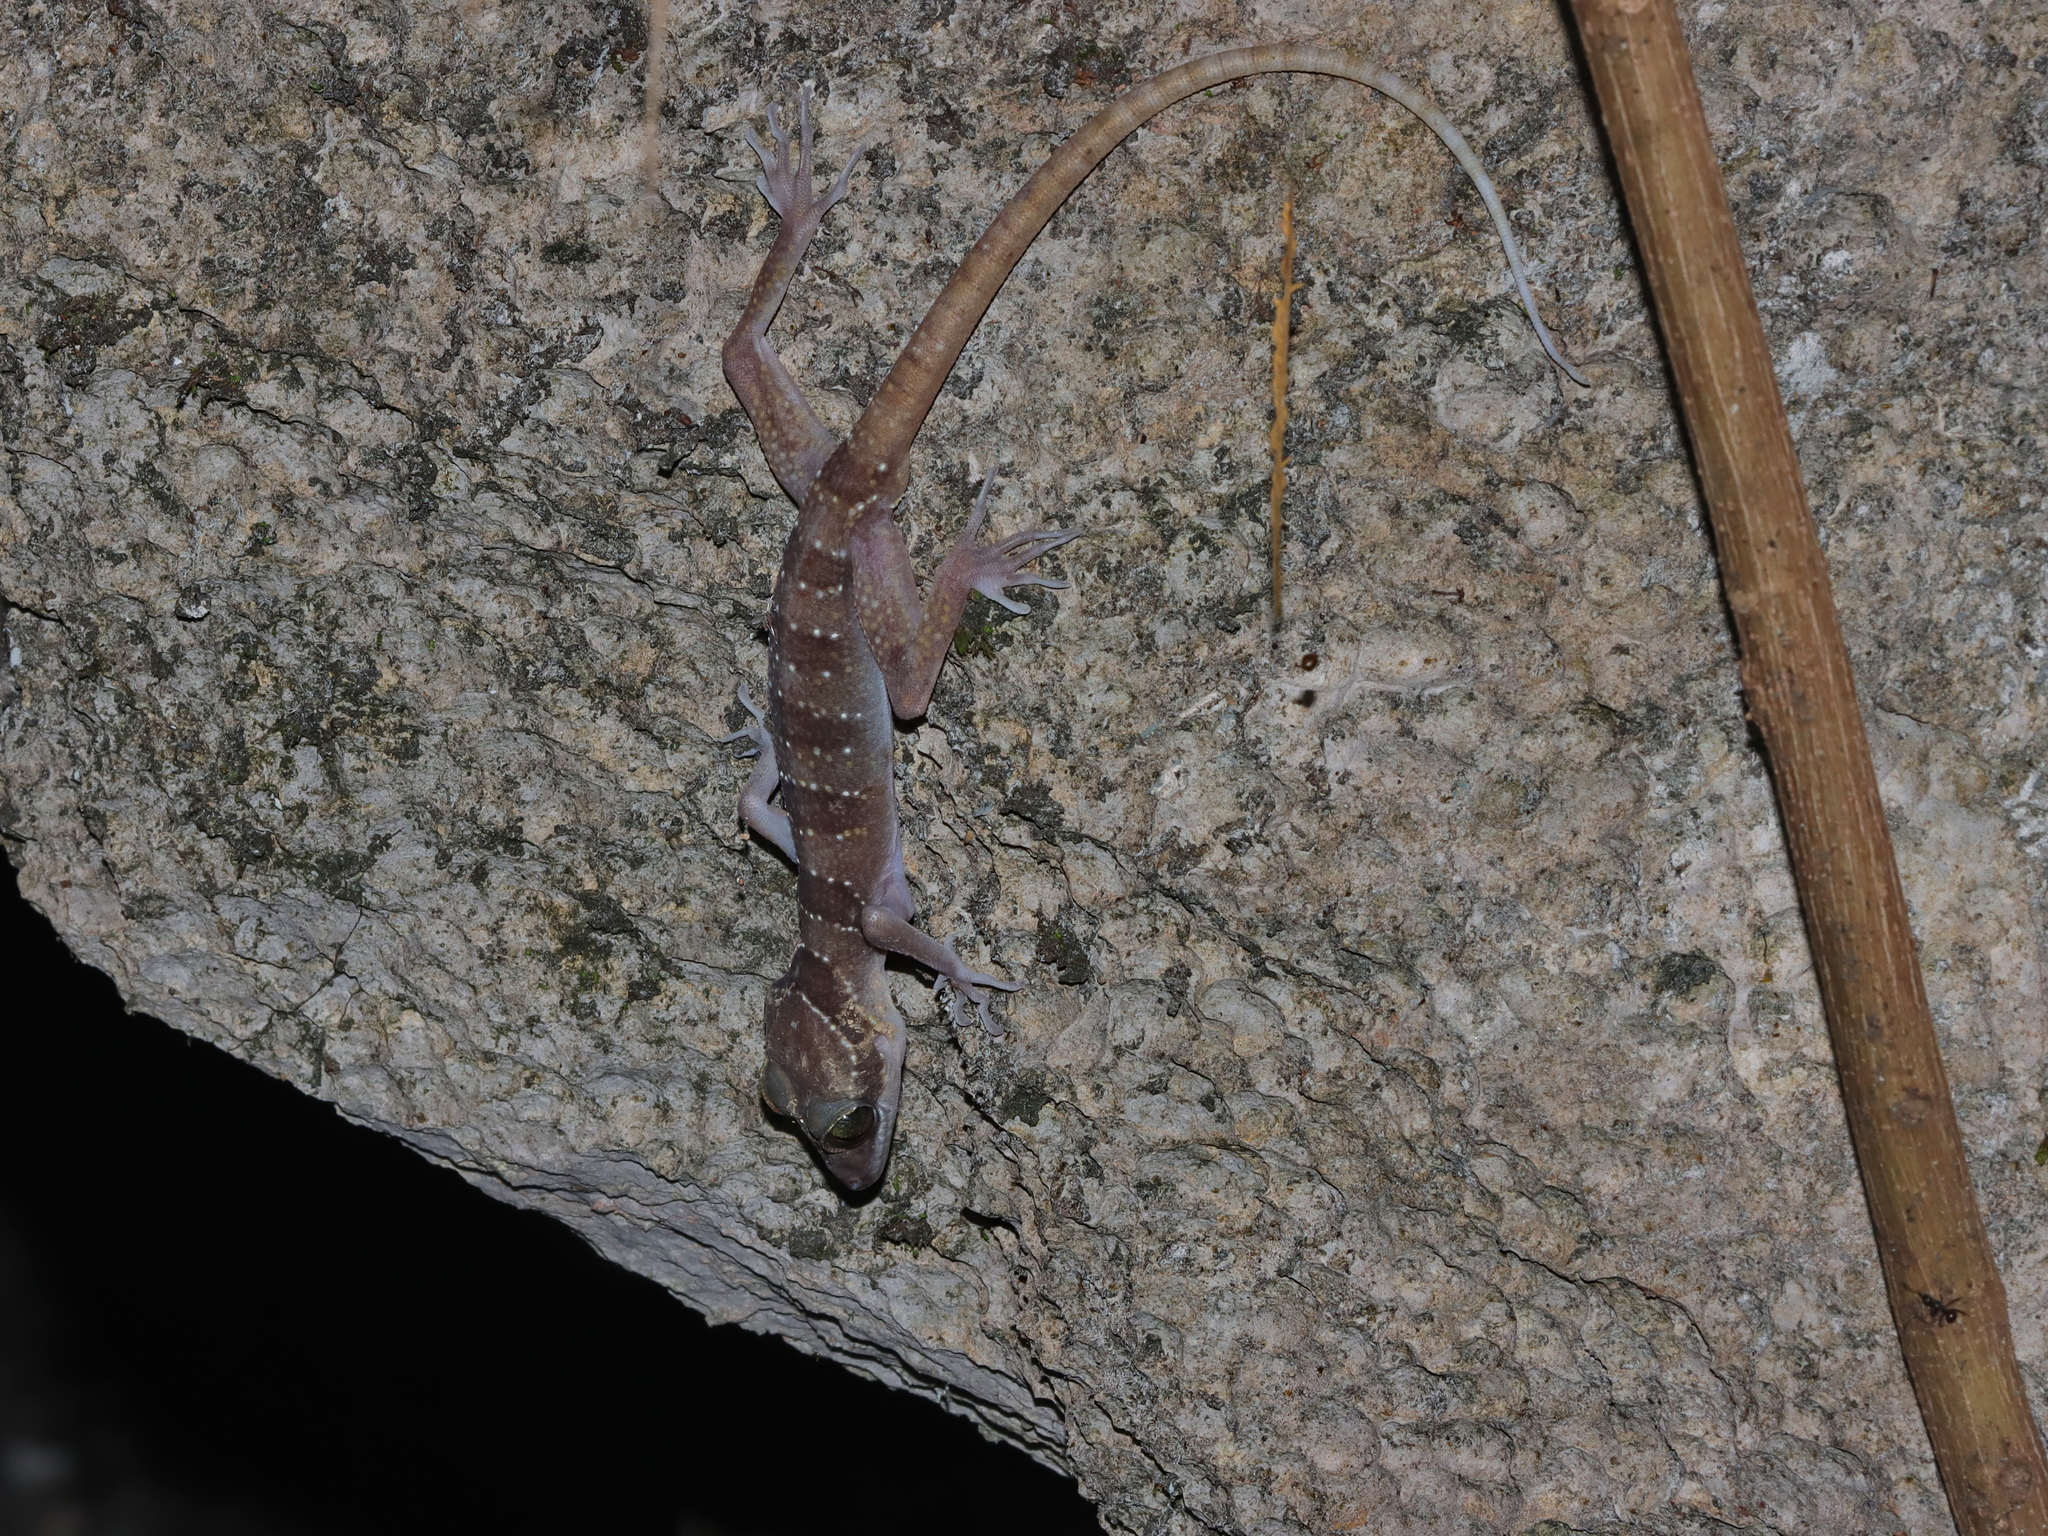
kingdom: Animalia
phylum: Chordata
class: Squamata
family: Gekkonidae
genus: Cyrtodactylus
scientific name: Cyrtodactylus
